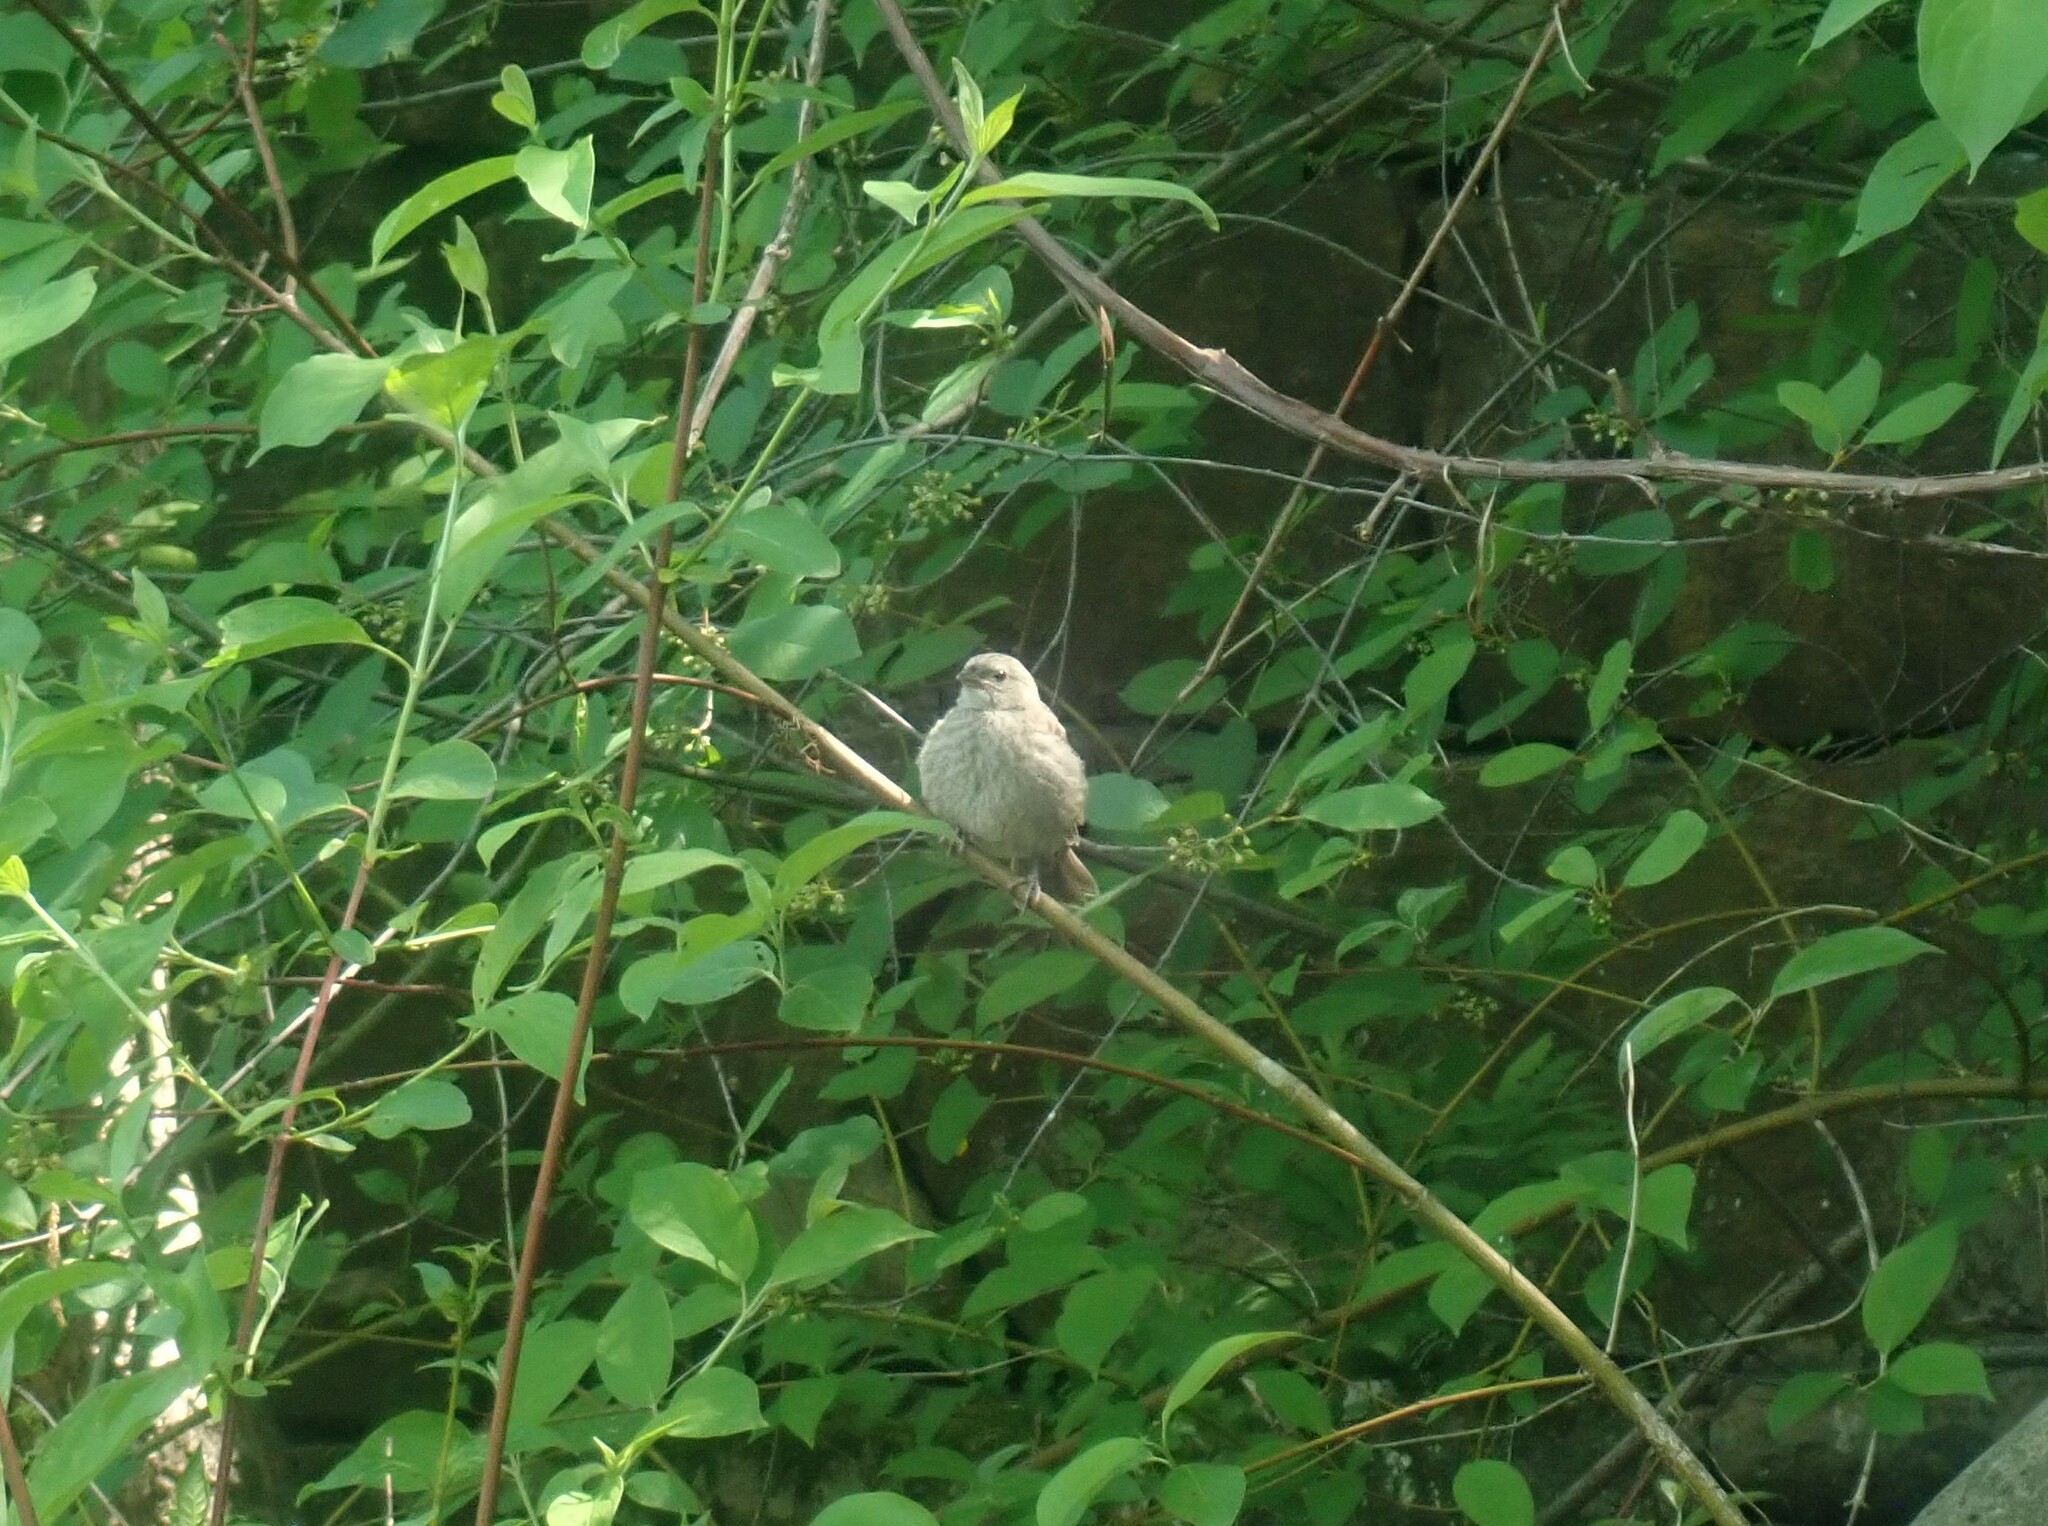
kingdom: Animalia
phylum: Chordata
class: Aves
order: Passeriformes
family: Icteridae
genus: Molothrus
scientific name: Molothrus ater
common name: Brown-headed cowbird
